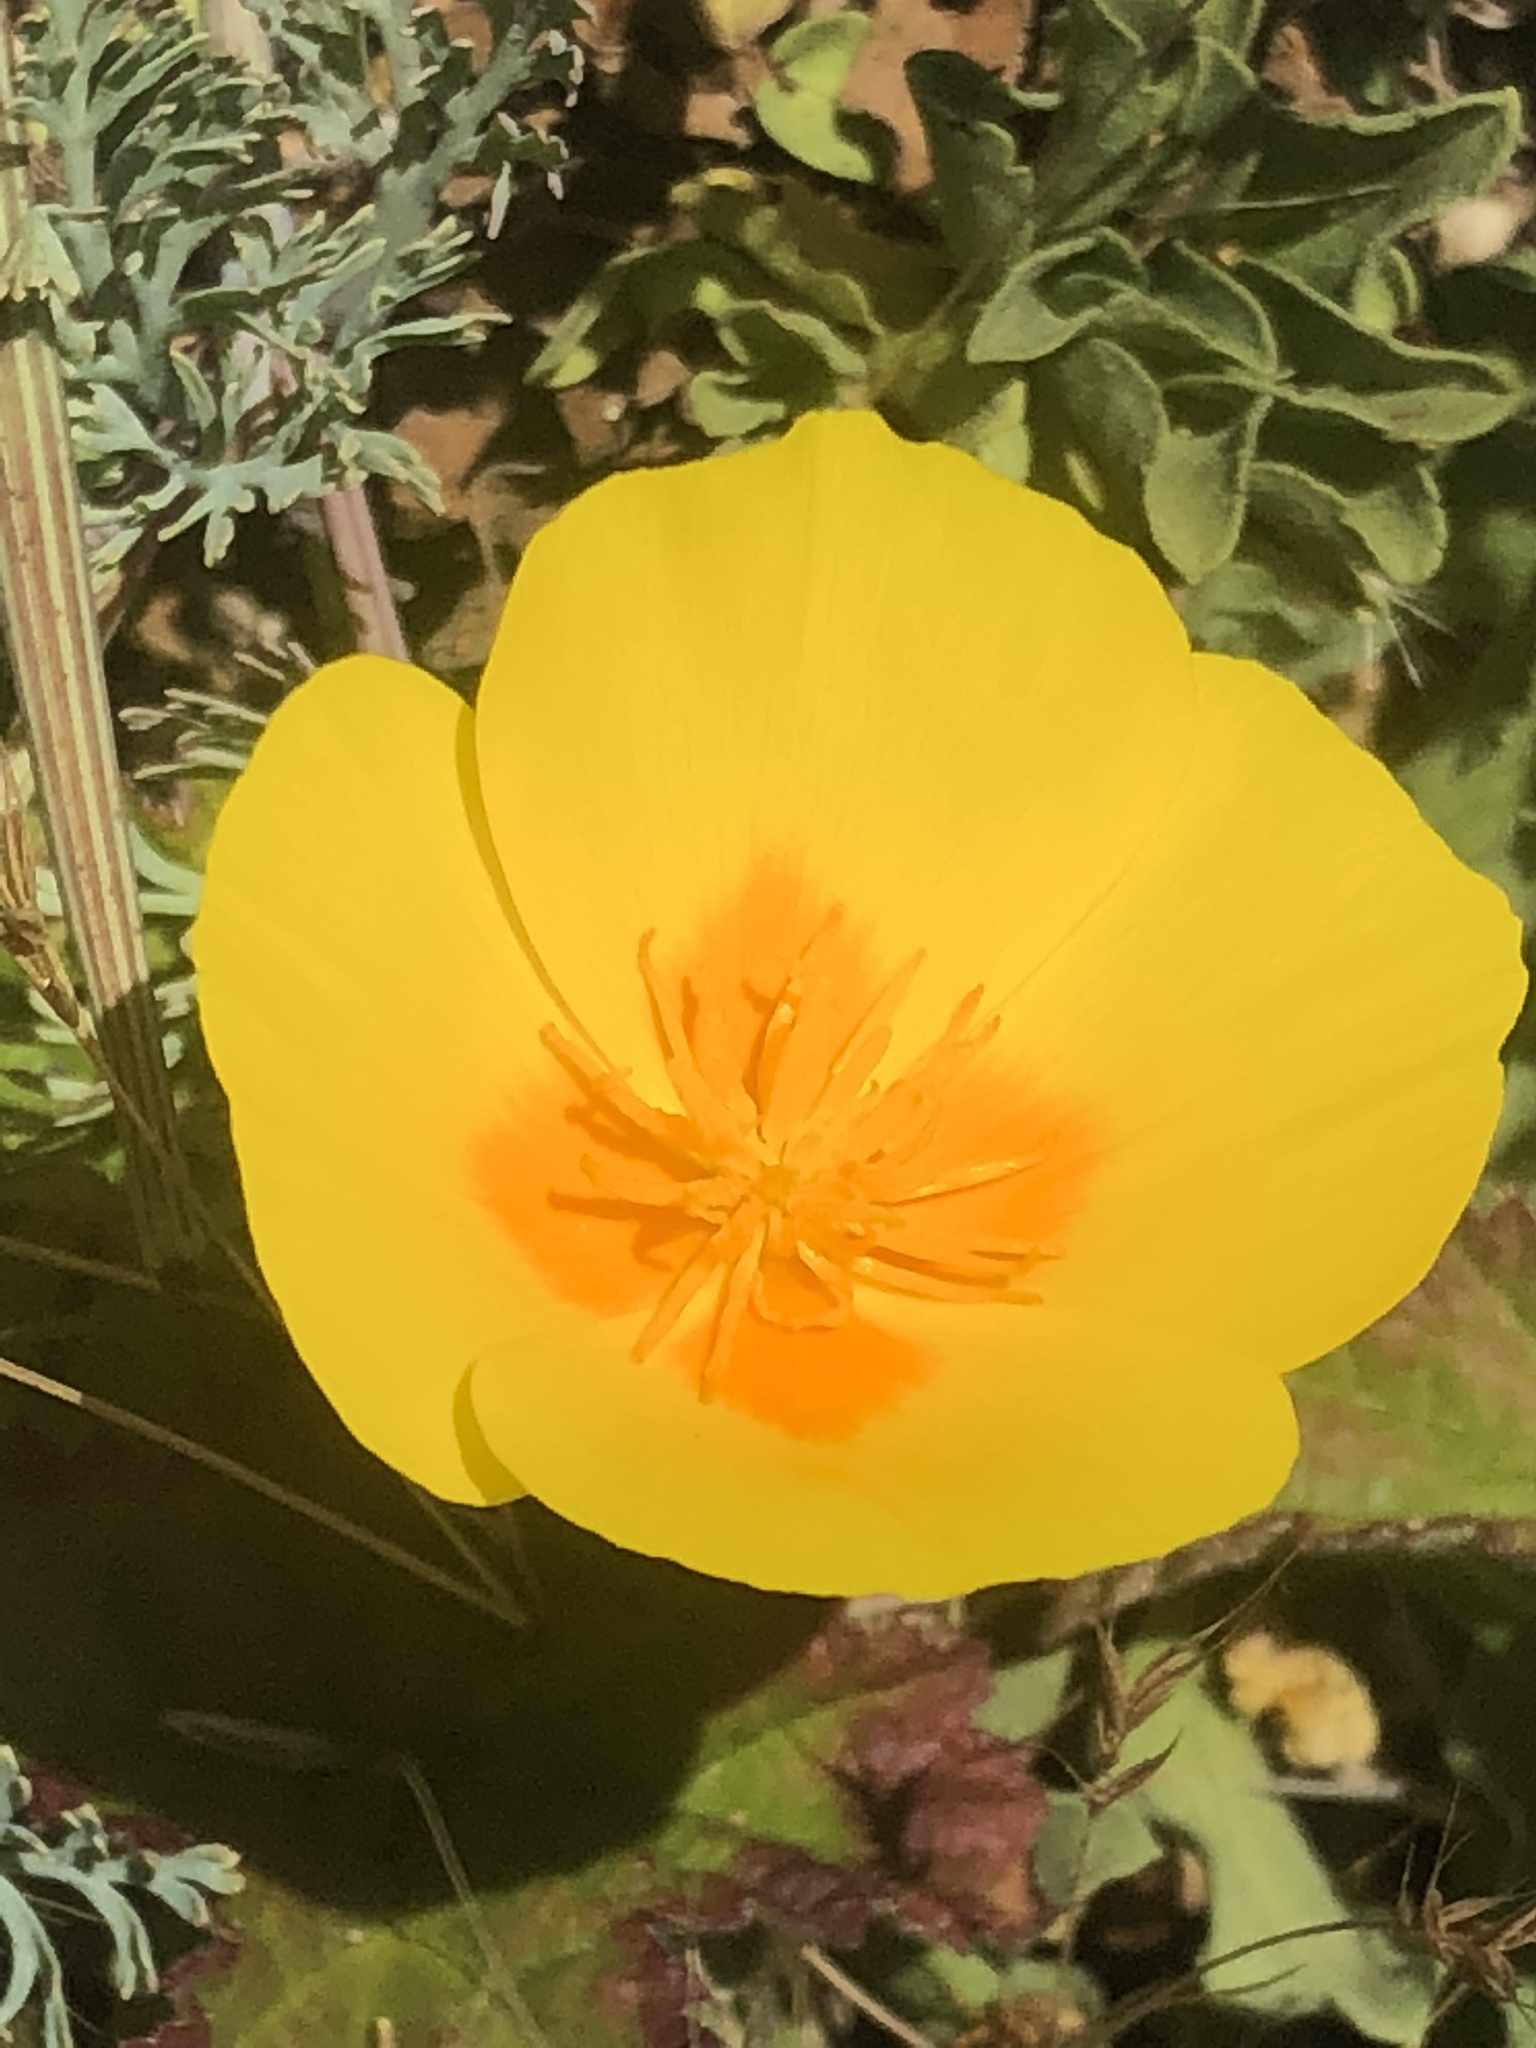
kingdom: Plantae
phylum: Tracheophyta
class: Magnoliopsida
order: Ranunculales
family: Papaveraceae
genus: Eschscholzia
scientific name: Eschscholzia californica
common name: California poppy
